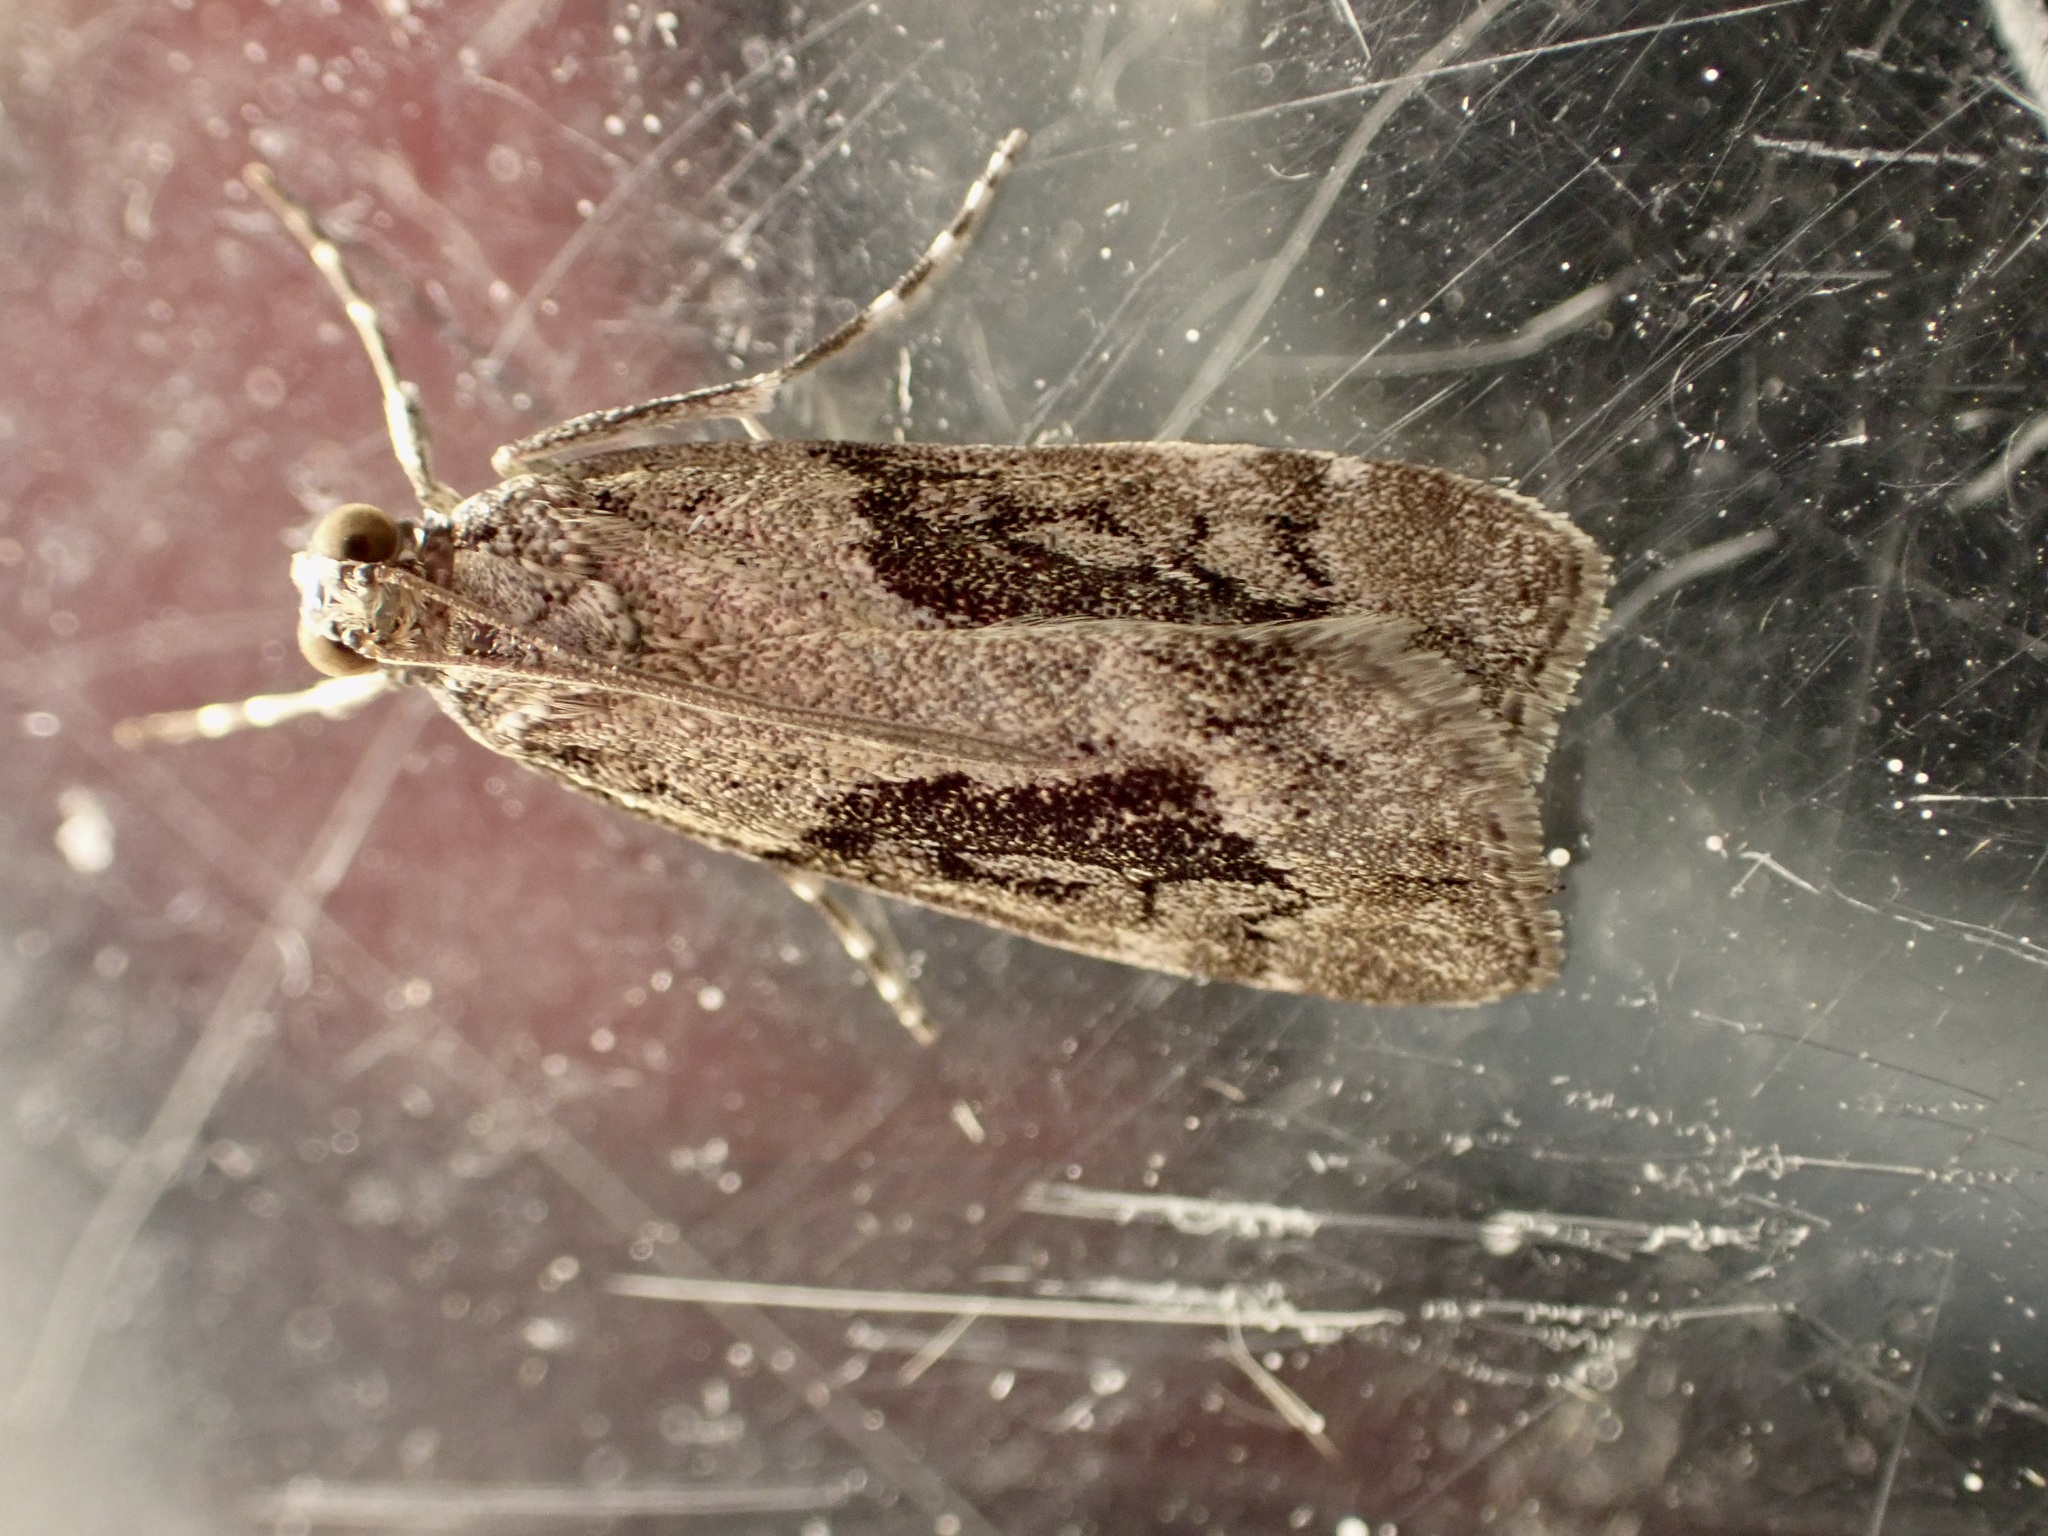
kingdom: Animalia
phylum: Arthropoda
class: Insecta
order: Lepidoptera
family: Crambidae
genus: Eudonia
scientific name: Eudonia submarginalis
